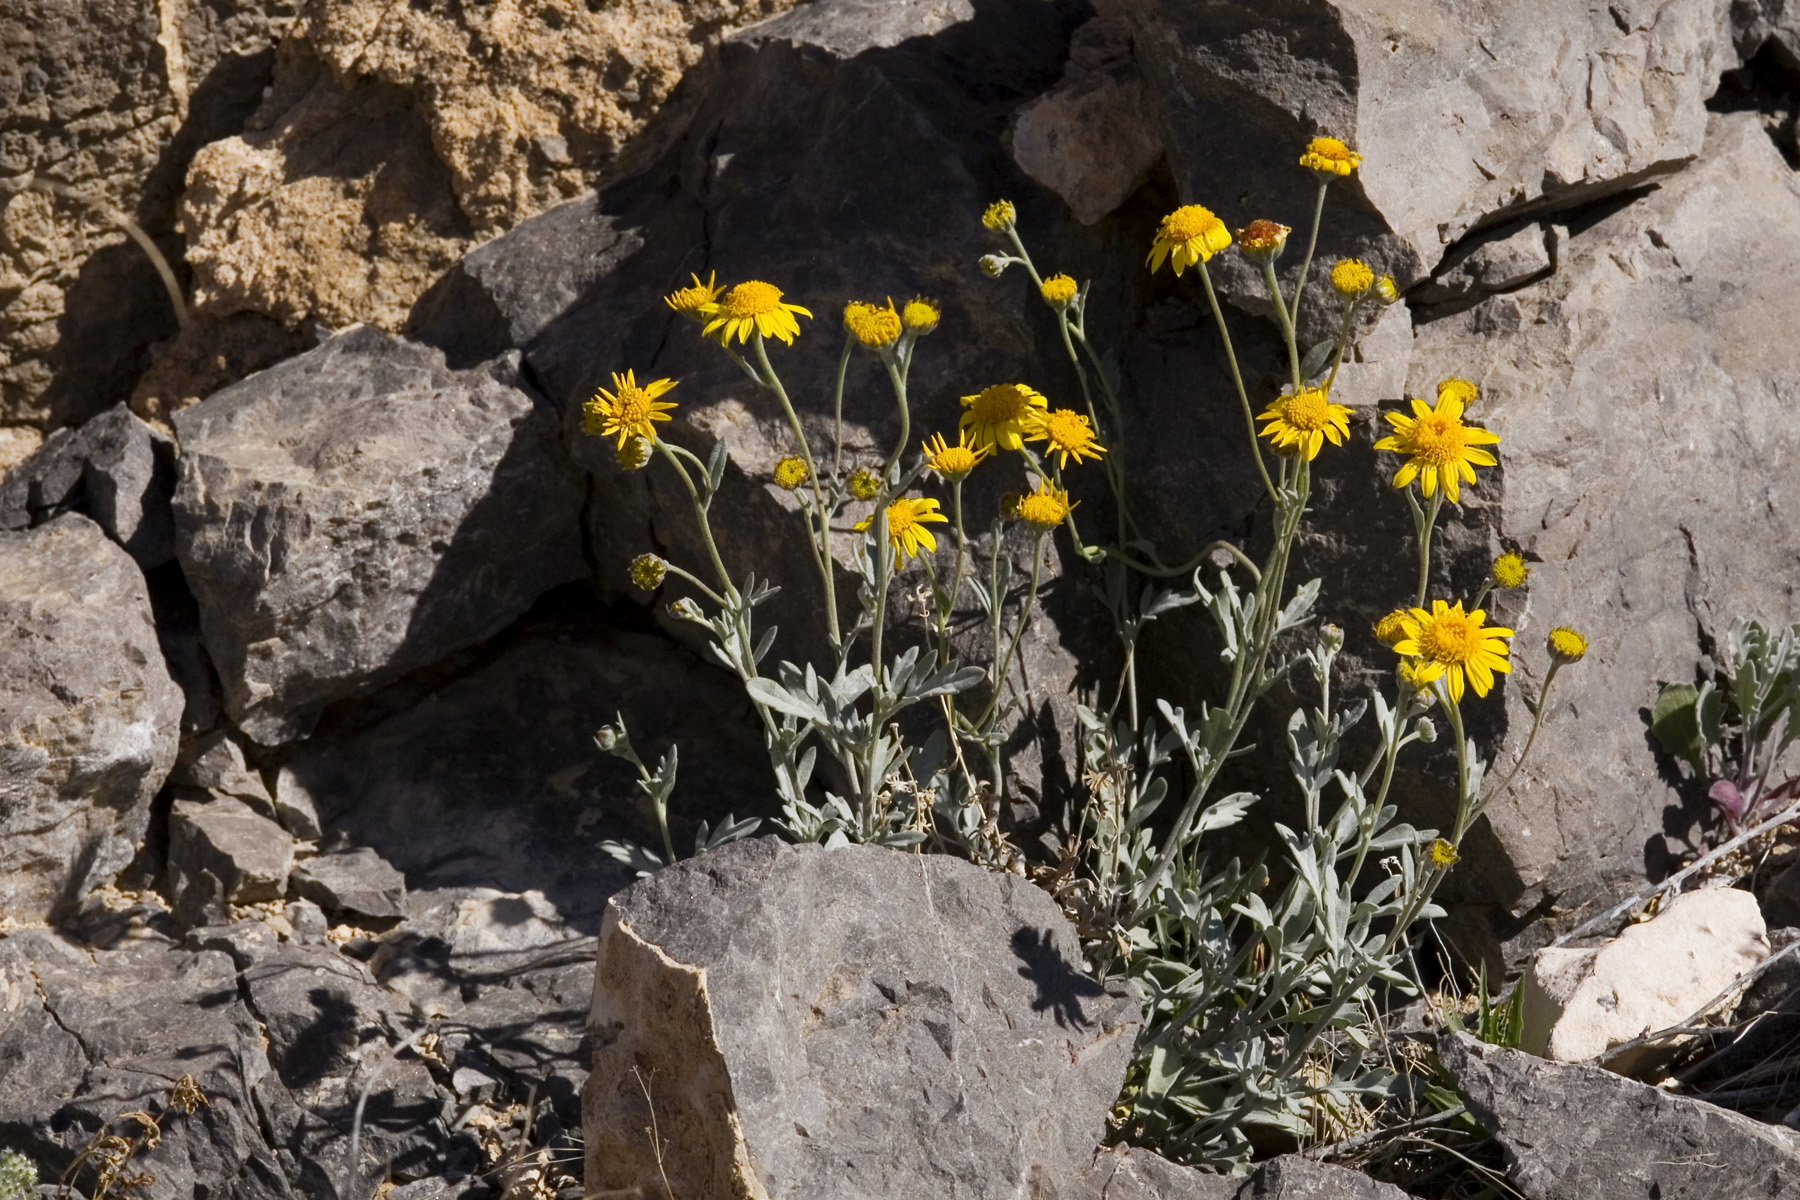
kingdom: Plantae
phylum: Tracheophyta
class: Magnoliopsida
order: Asterales
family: Asteraceae
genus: Picradeniopsis
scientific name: Picradeniopsis absinthifolia
